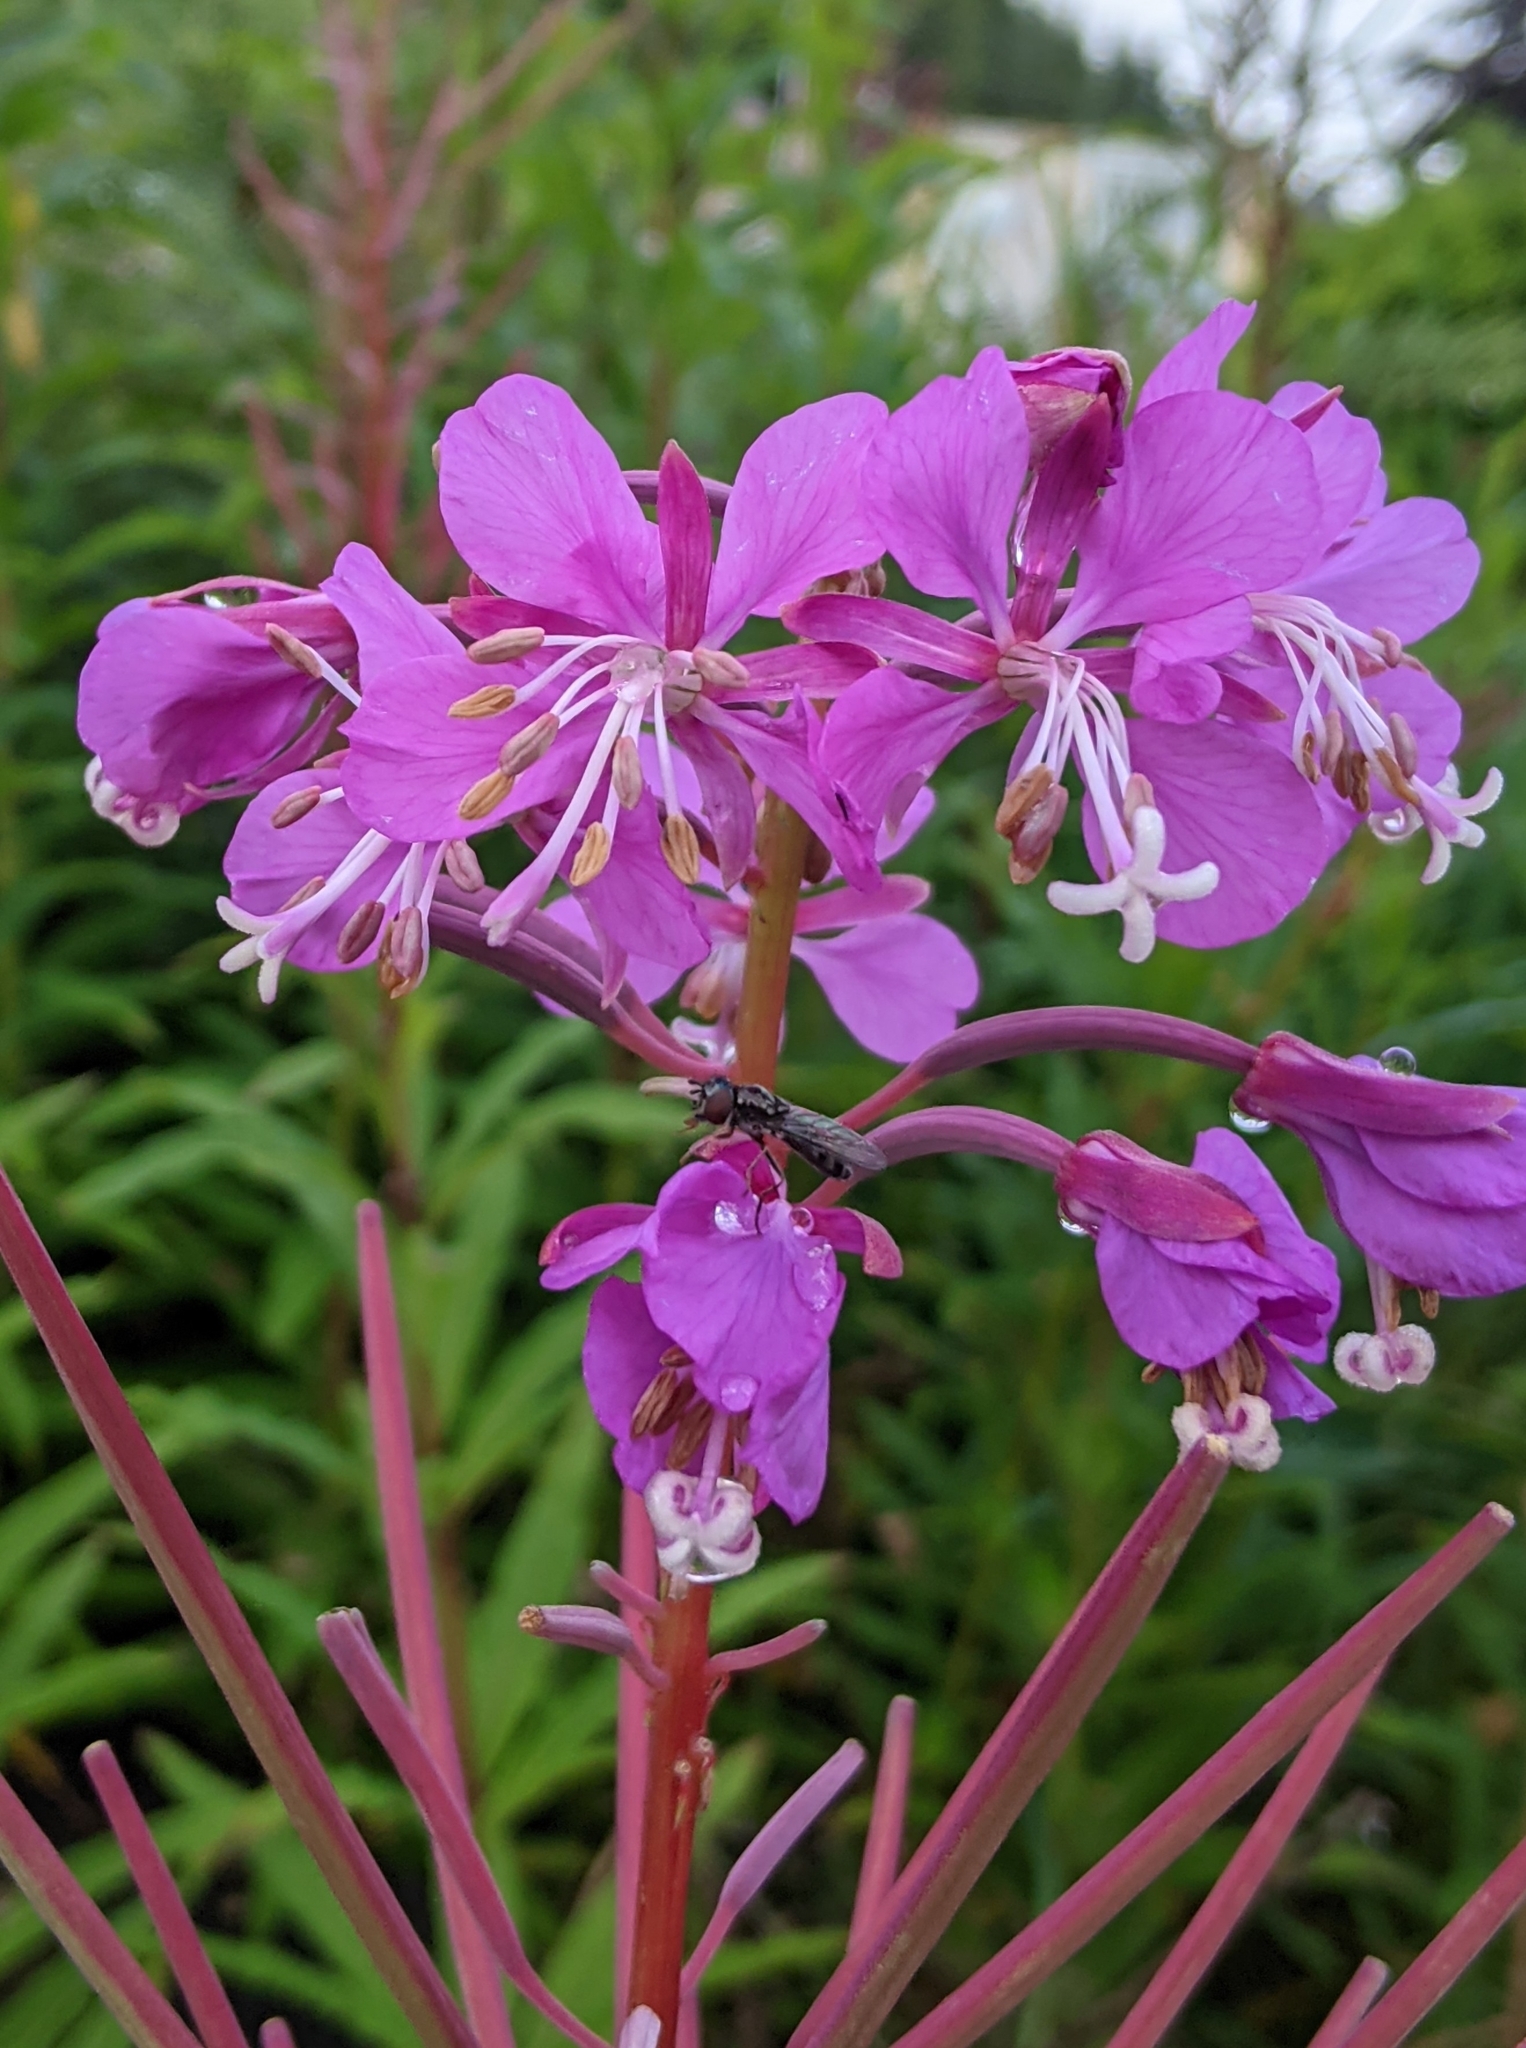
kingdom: Plantae
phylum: Tracheophyta
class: Magnoliopsida
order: Myrtales
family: Onagraceae
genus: Chamaenerion
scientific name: Chamaenerion angustifolium
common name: Fireweed
